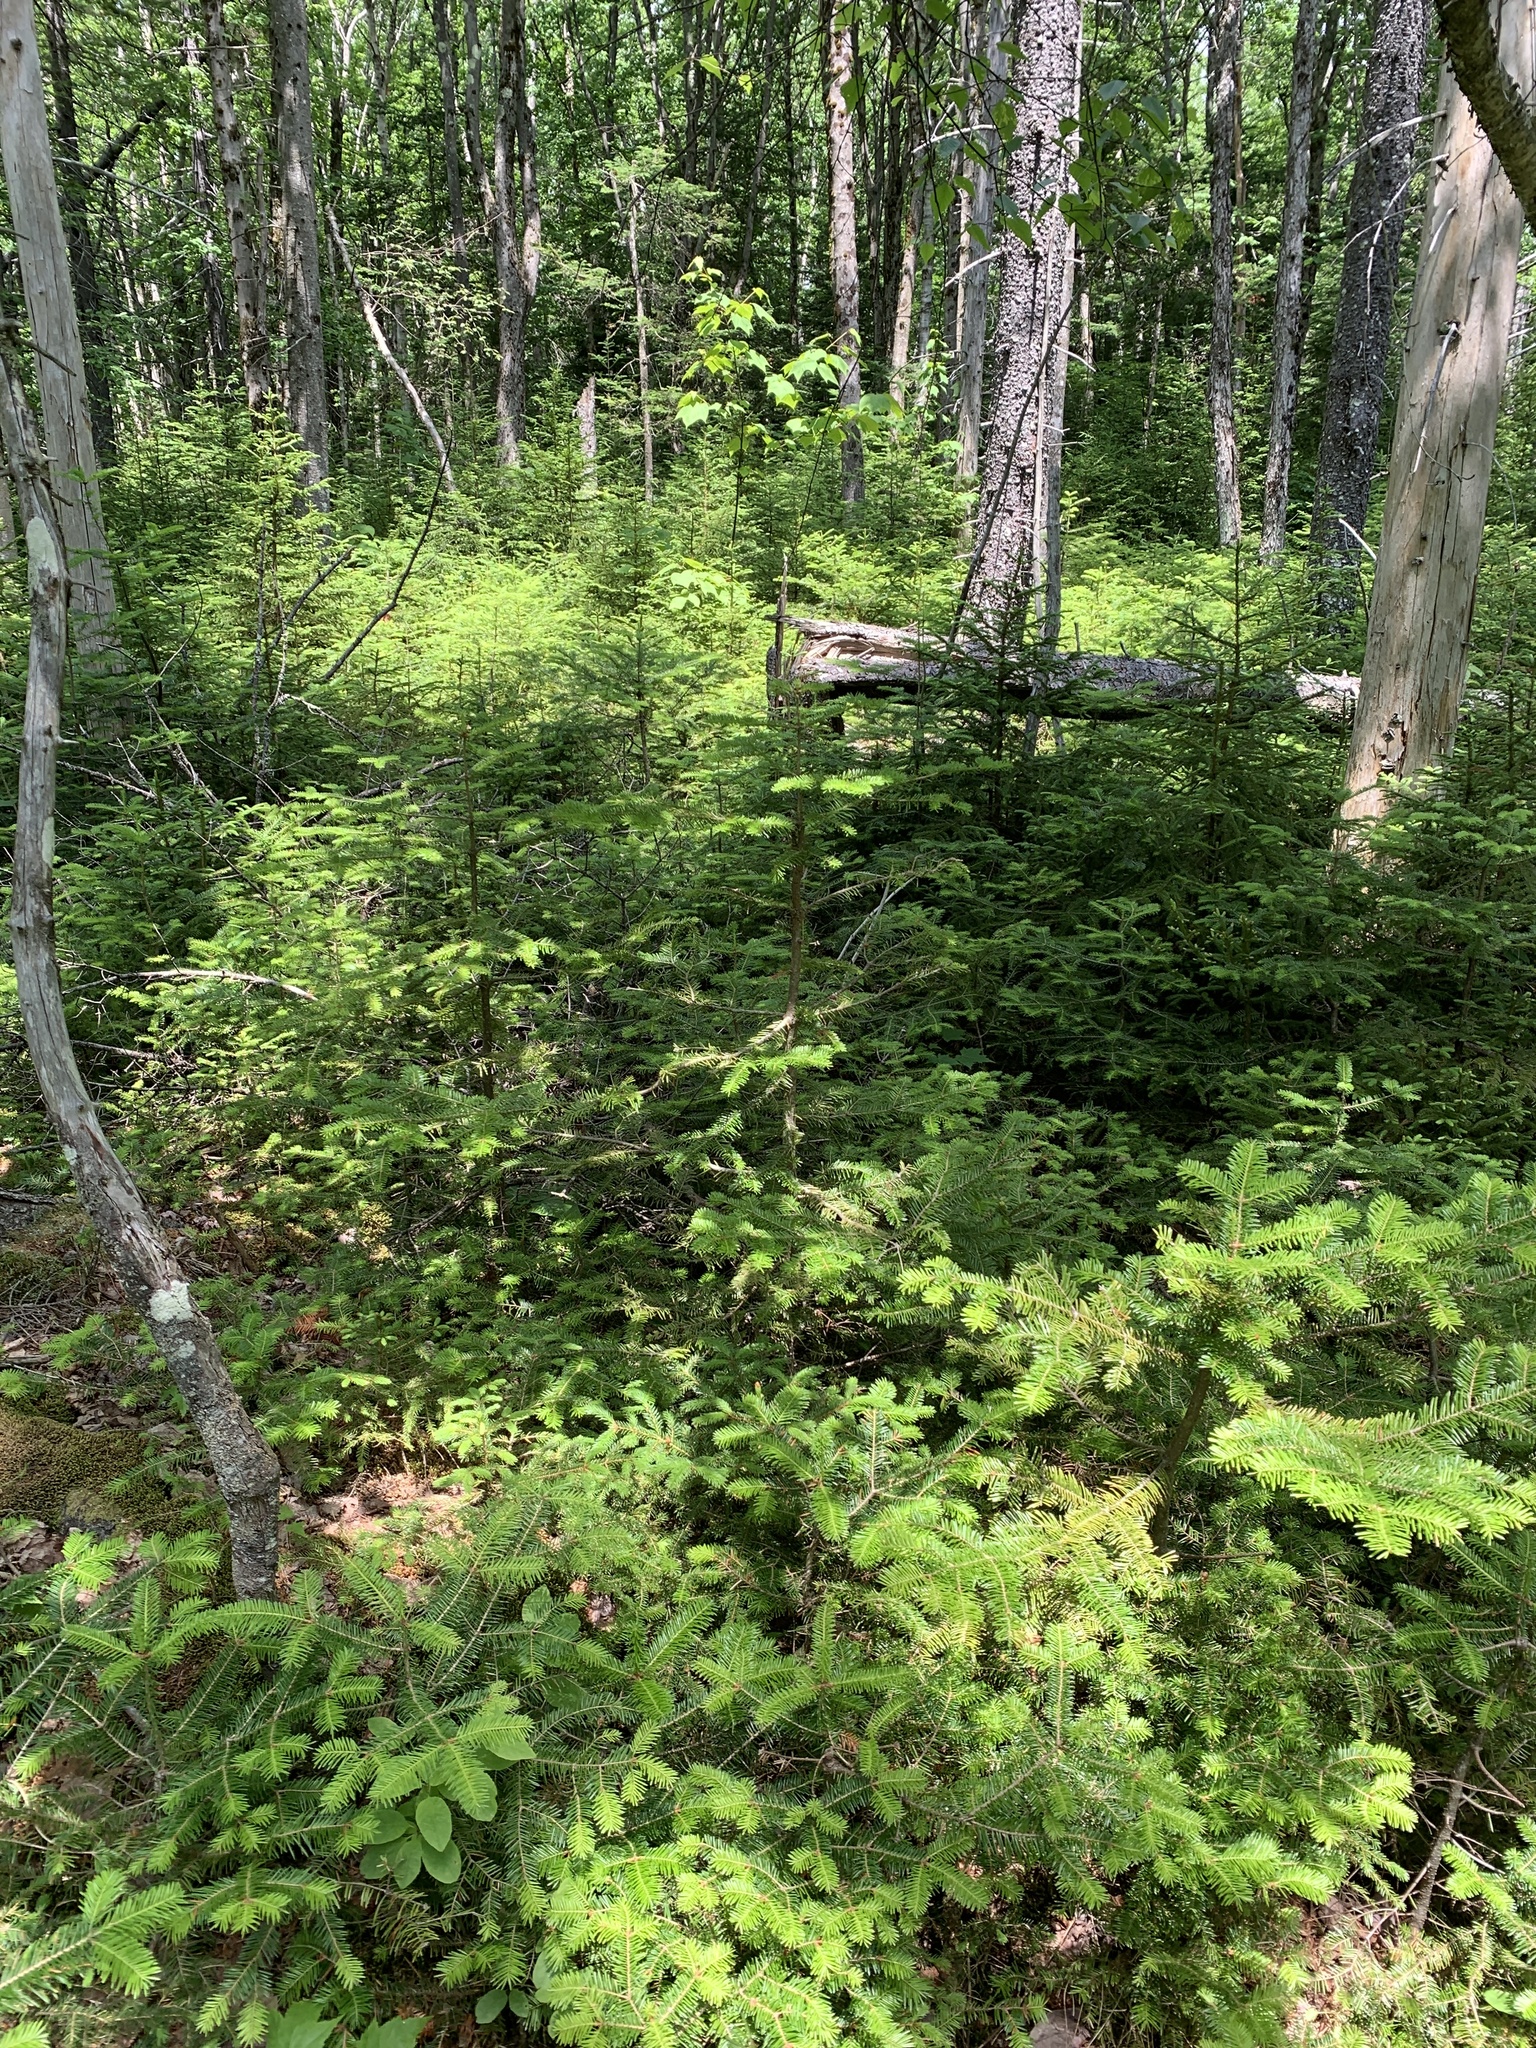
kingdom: Plantae
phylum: Tracheophyta
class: Pinopsida
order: Pinales
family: Pinaceae
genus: Abies
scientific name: Abies balsamea
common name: Balsam fir
